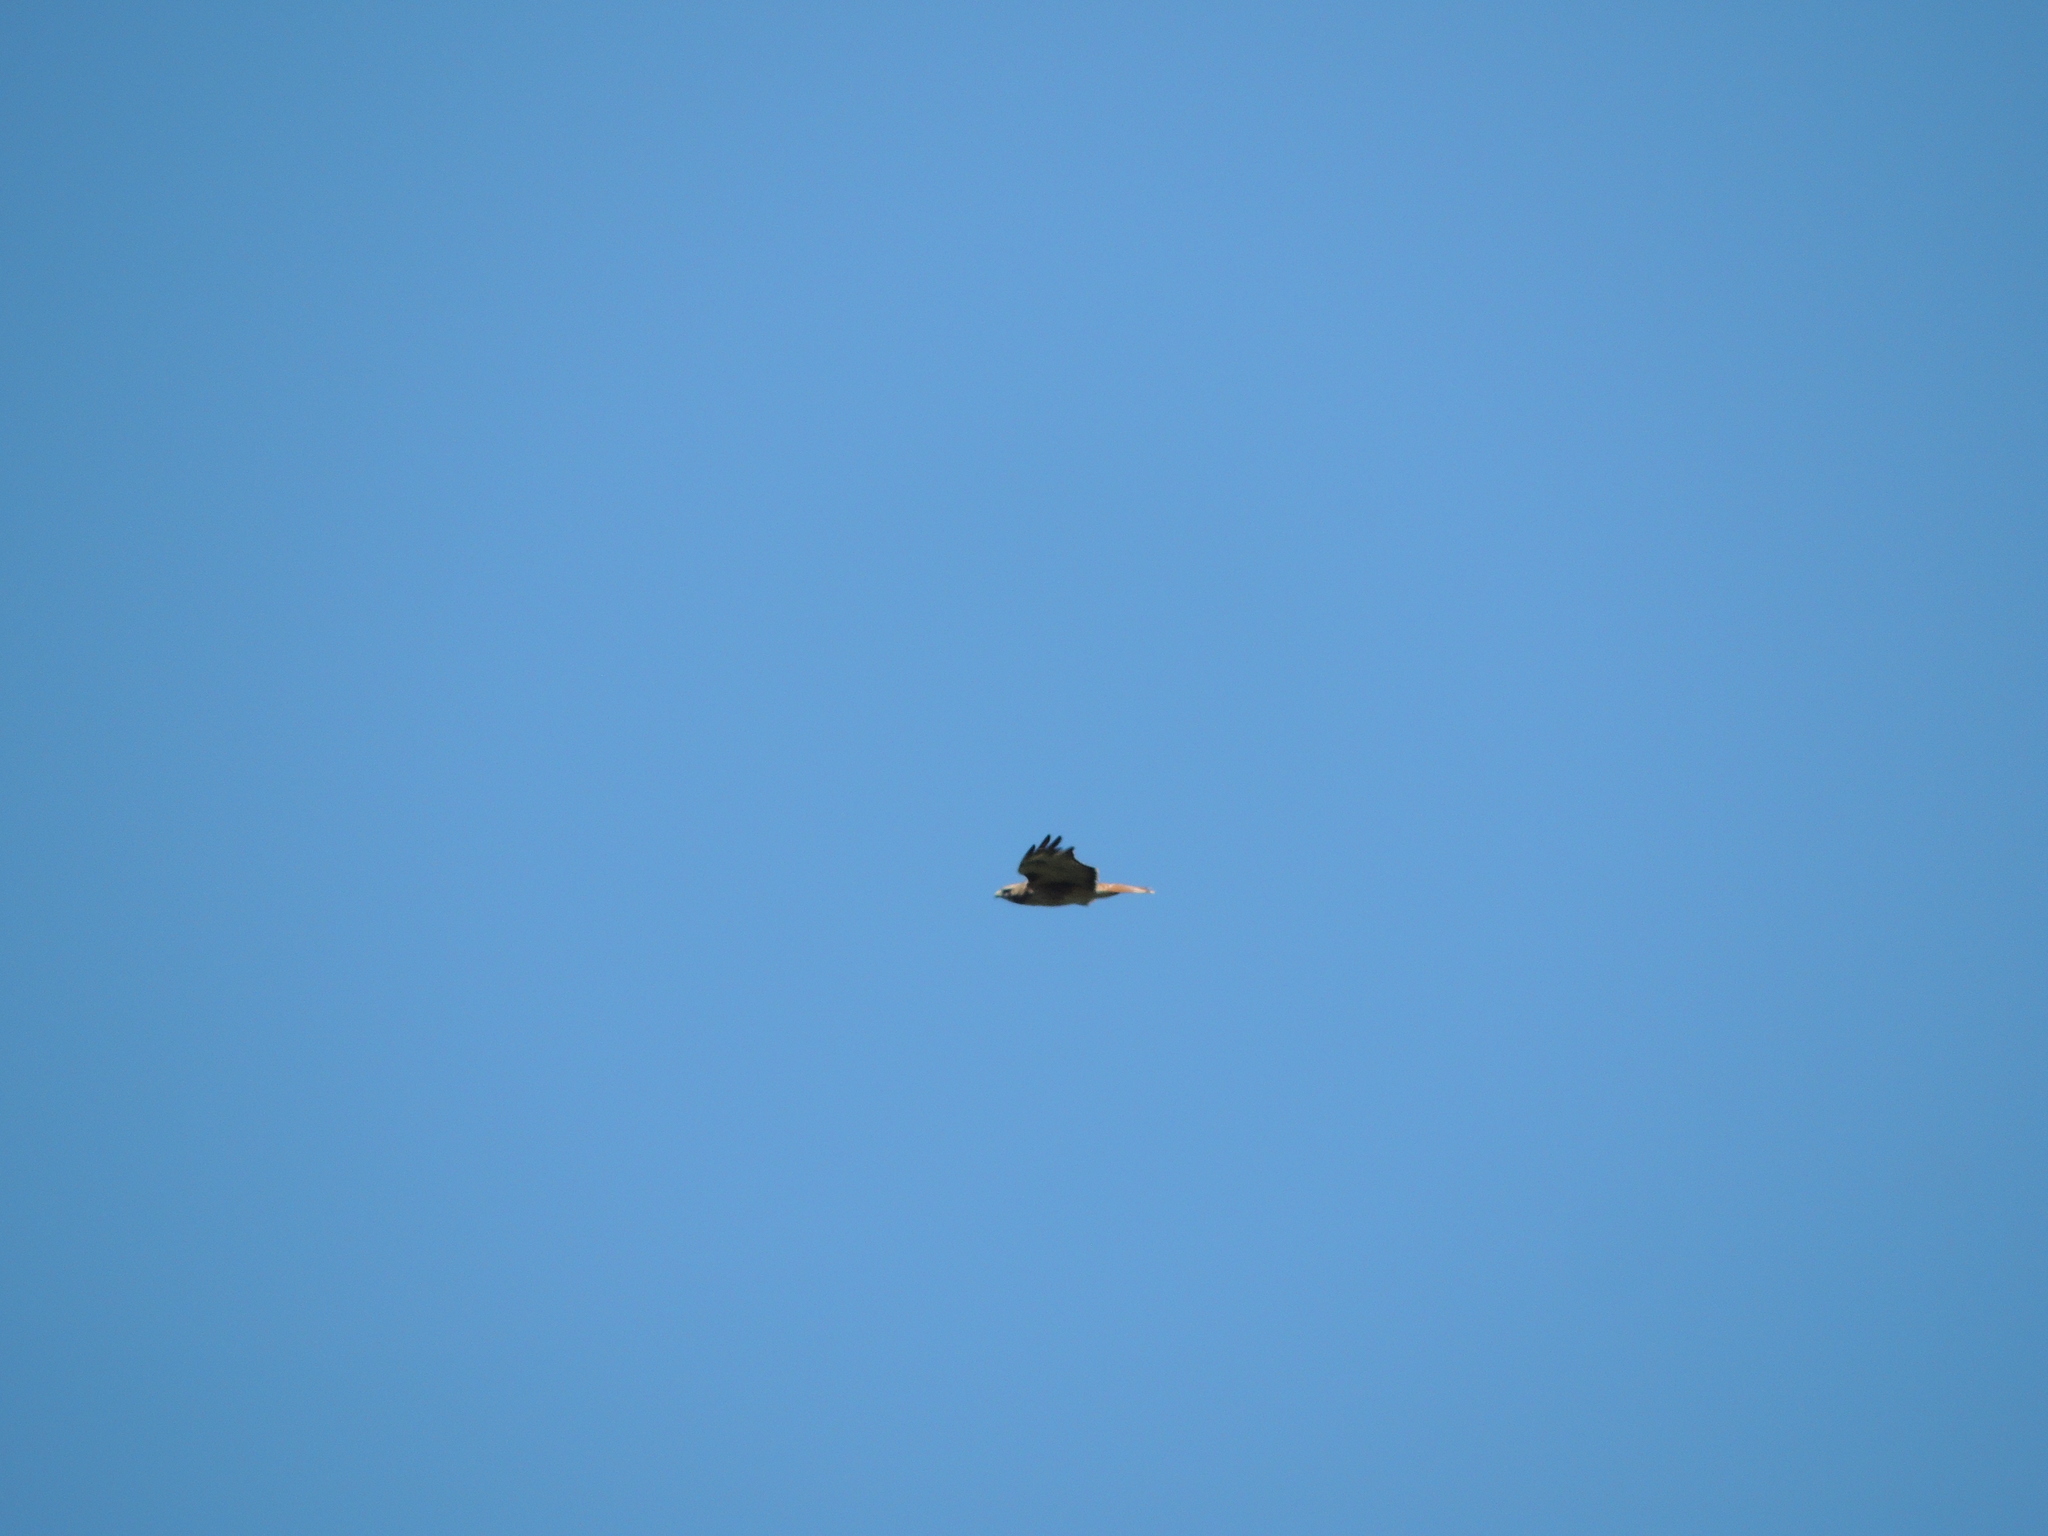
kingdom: Animalia
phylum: Chordata
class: Aves
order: Accipitriformes
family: Accipitridae
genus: Buteo
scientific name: Buteo jamaicensis
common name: Red-tailed hawk
